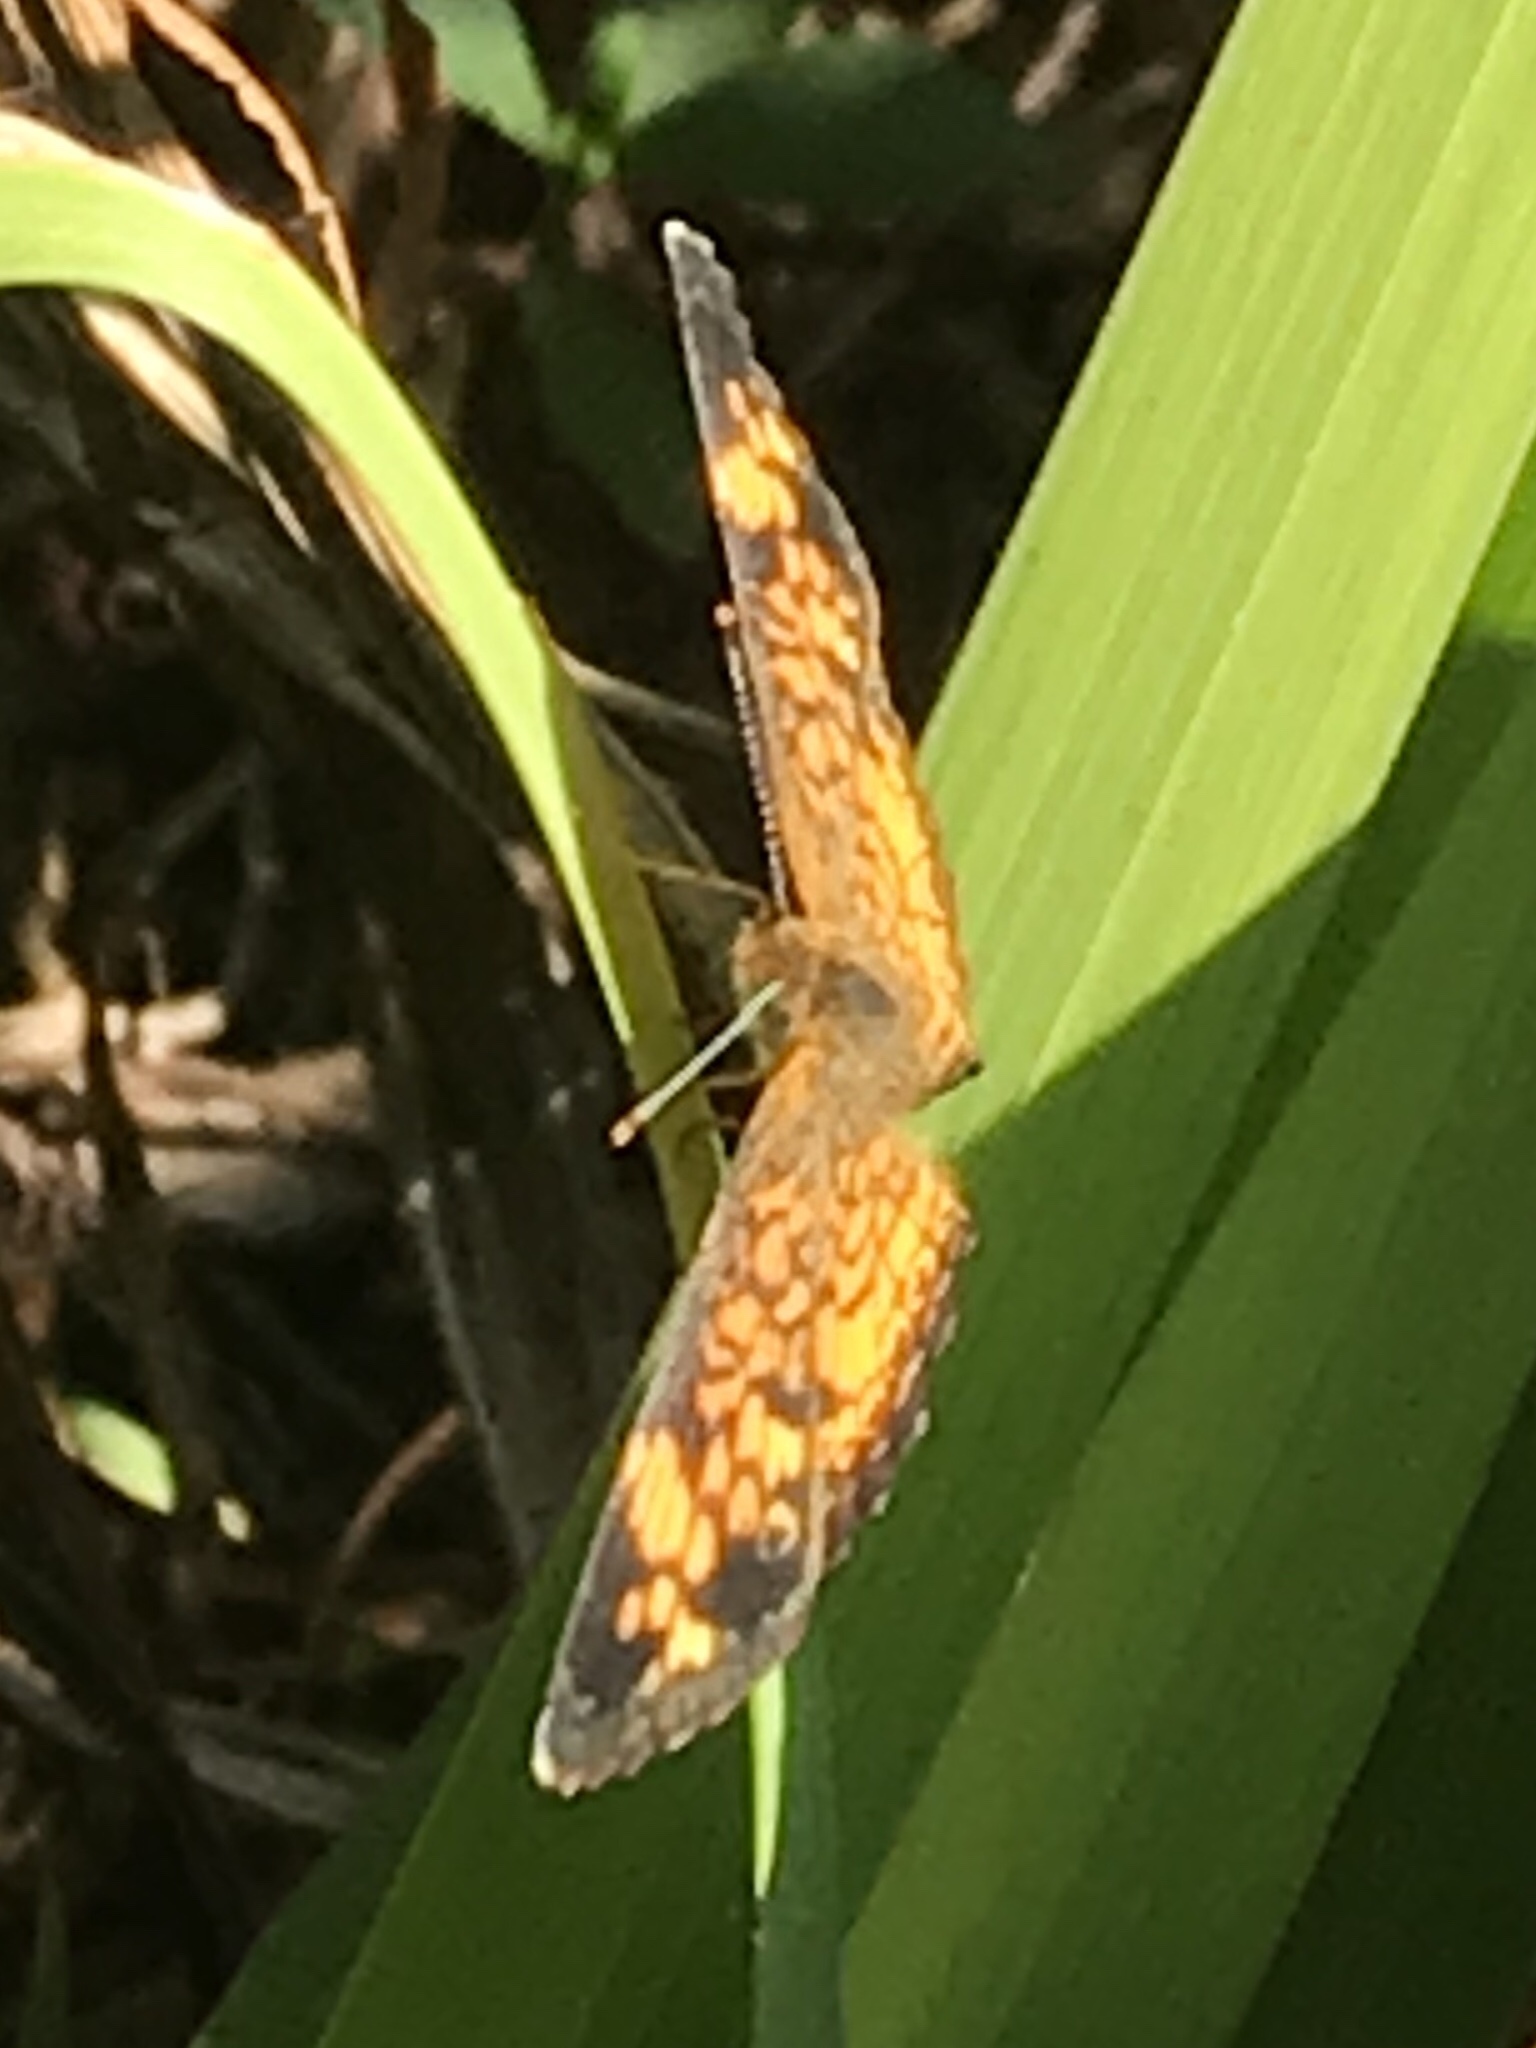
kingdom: Animalia
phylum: Arthropoda
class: Insecta
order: Lepidoptera
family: Nymphalidae
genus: Phyciodes
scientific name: Phyciodes tharos
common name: Pearl crescent
